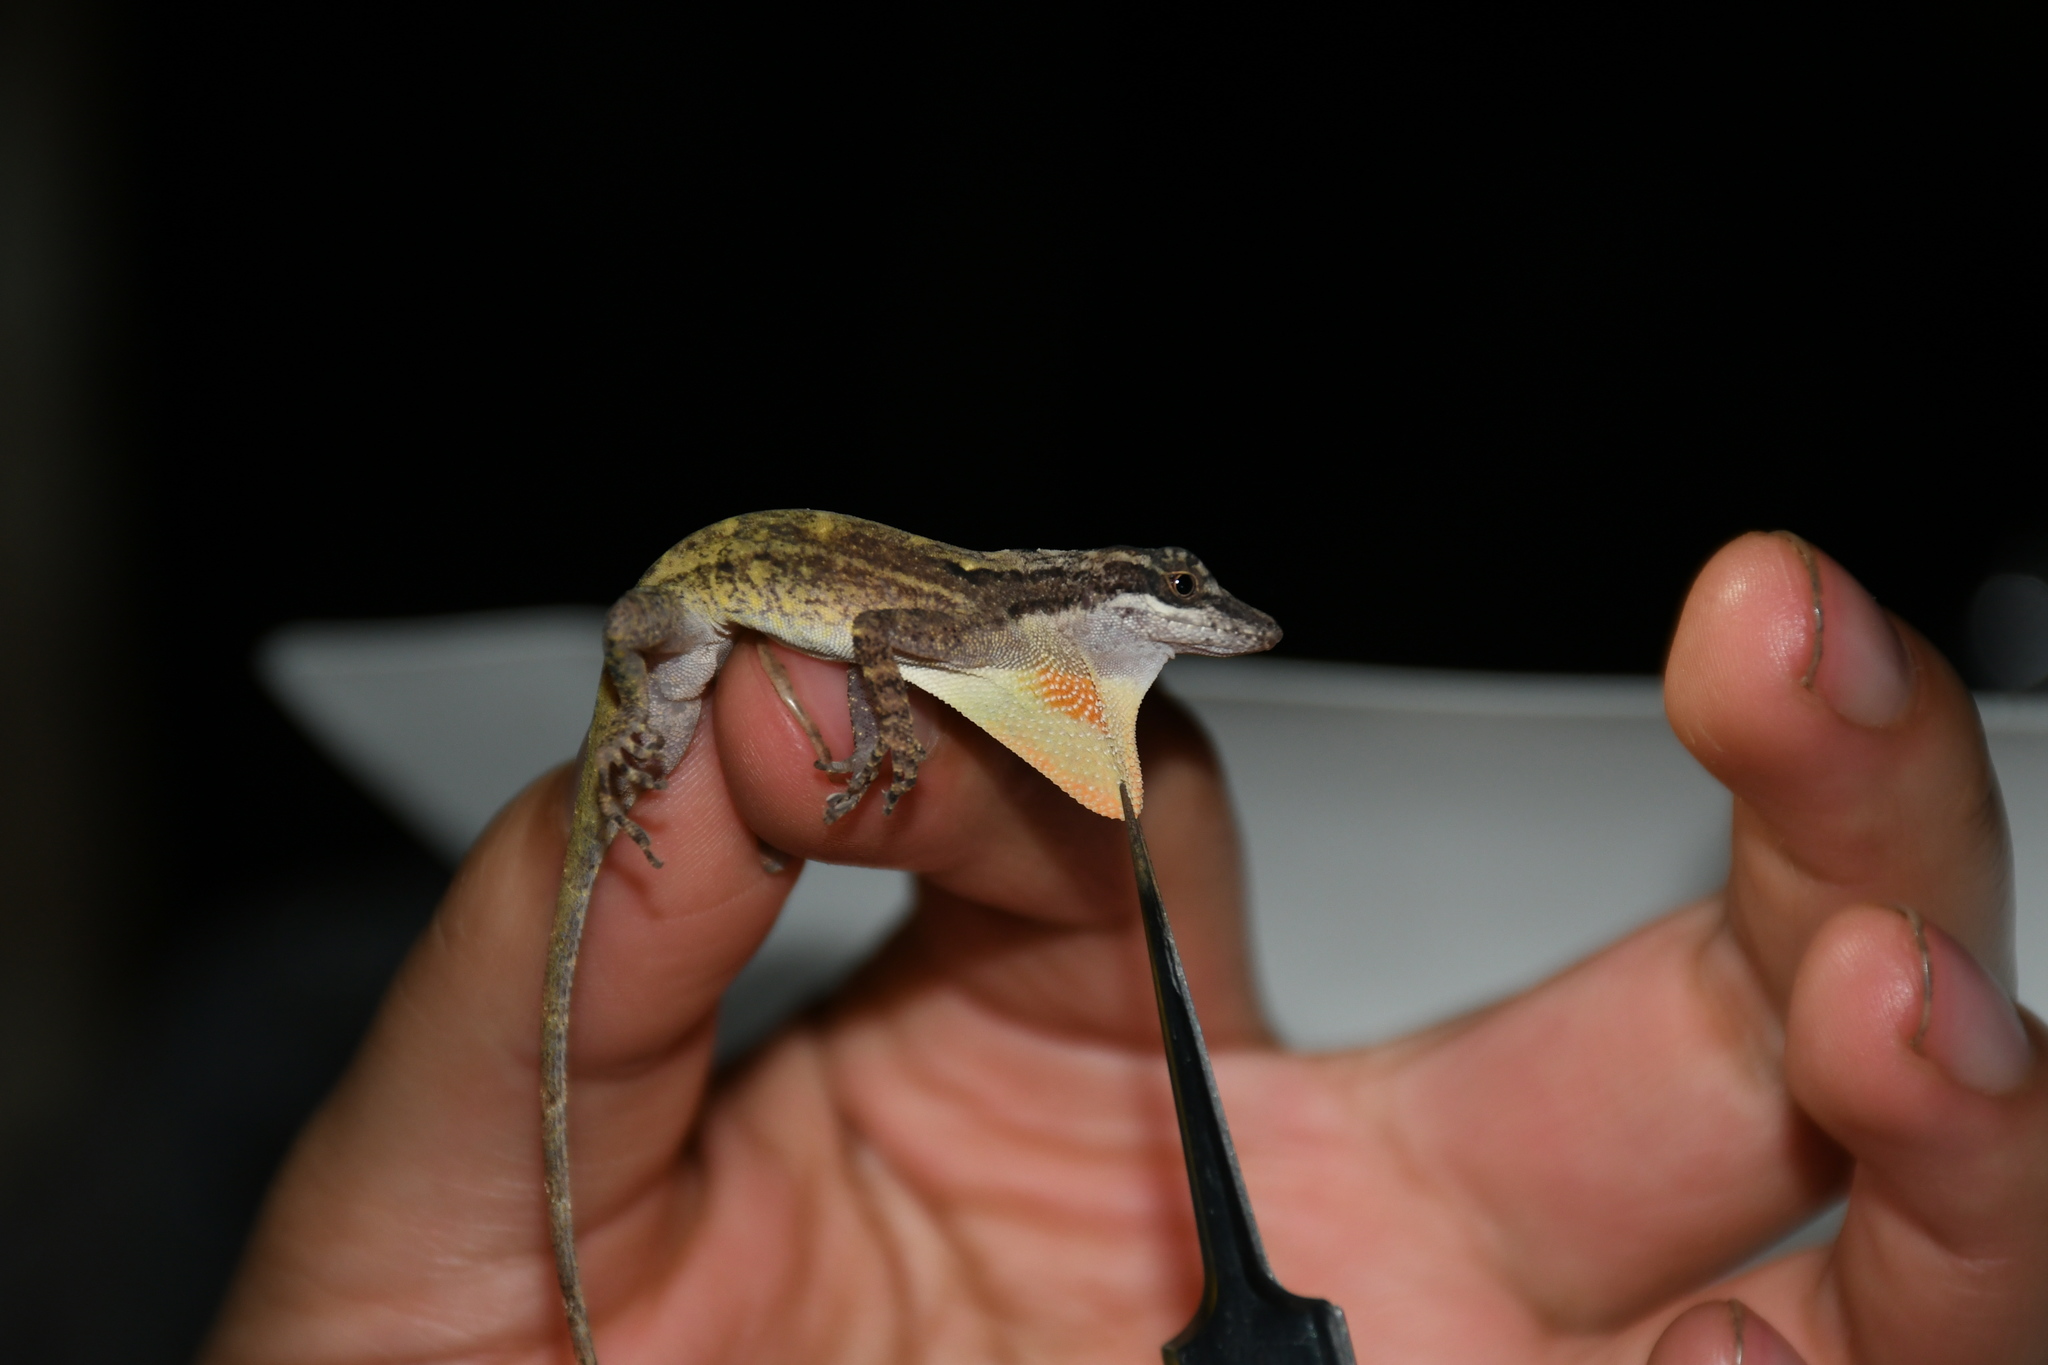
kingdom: Animalia
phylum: Chordata
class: Squamata
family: Dactyloidae
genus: Anolis
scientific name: Anolis rodriguezii
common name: Middle american smooth anole
